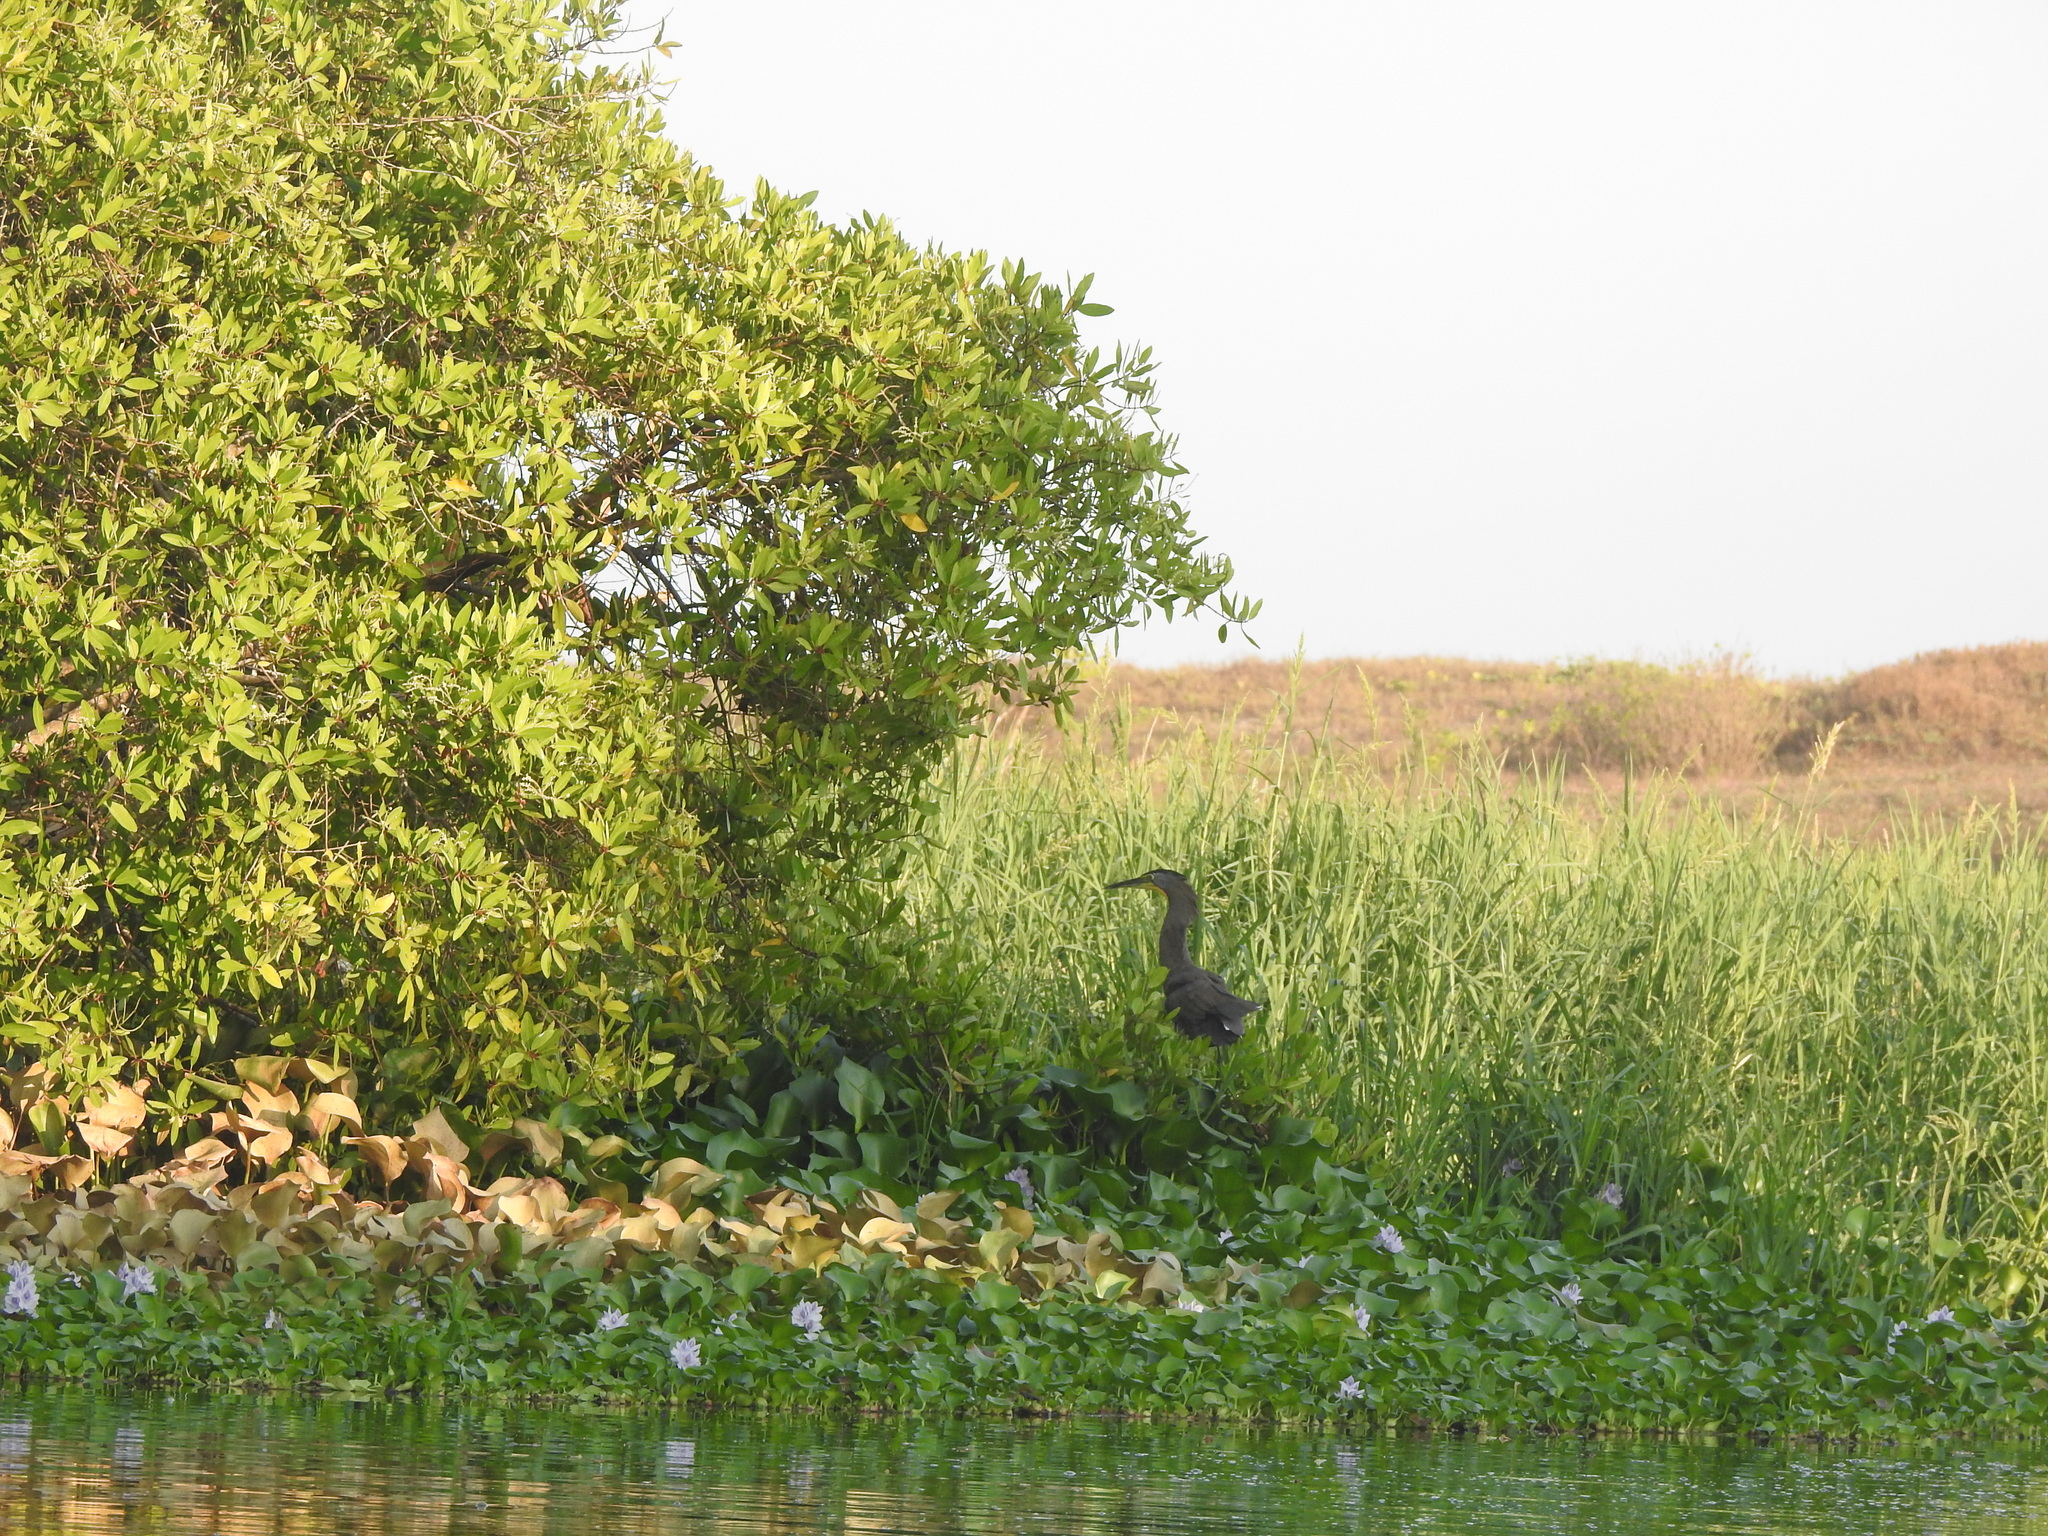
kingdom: Animalia
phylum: Chordata
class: Aves
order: Pelecaniformes
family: Ardeidae
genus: Tigrisoma
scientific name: Tigrisoma mexicanum
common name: Bare-throated tiger-heron
